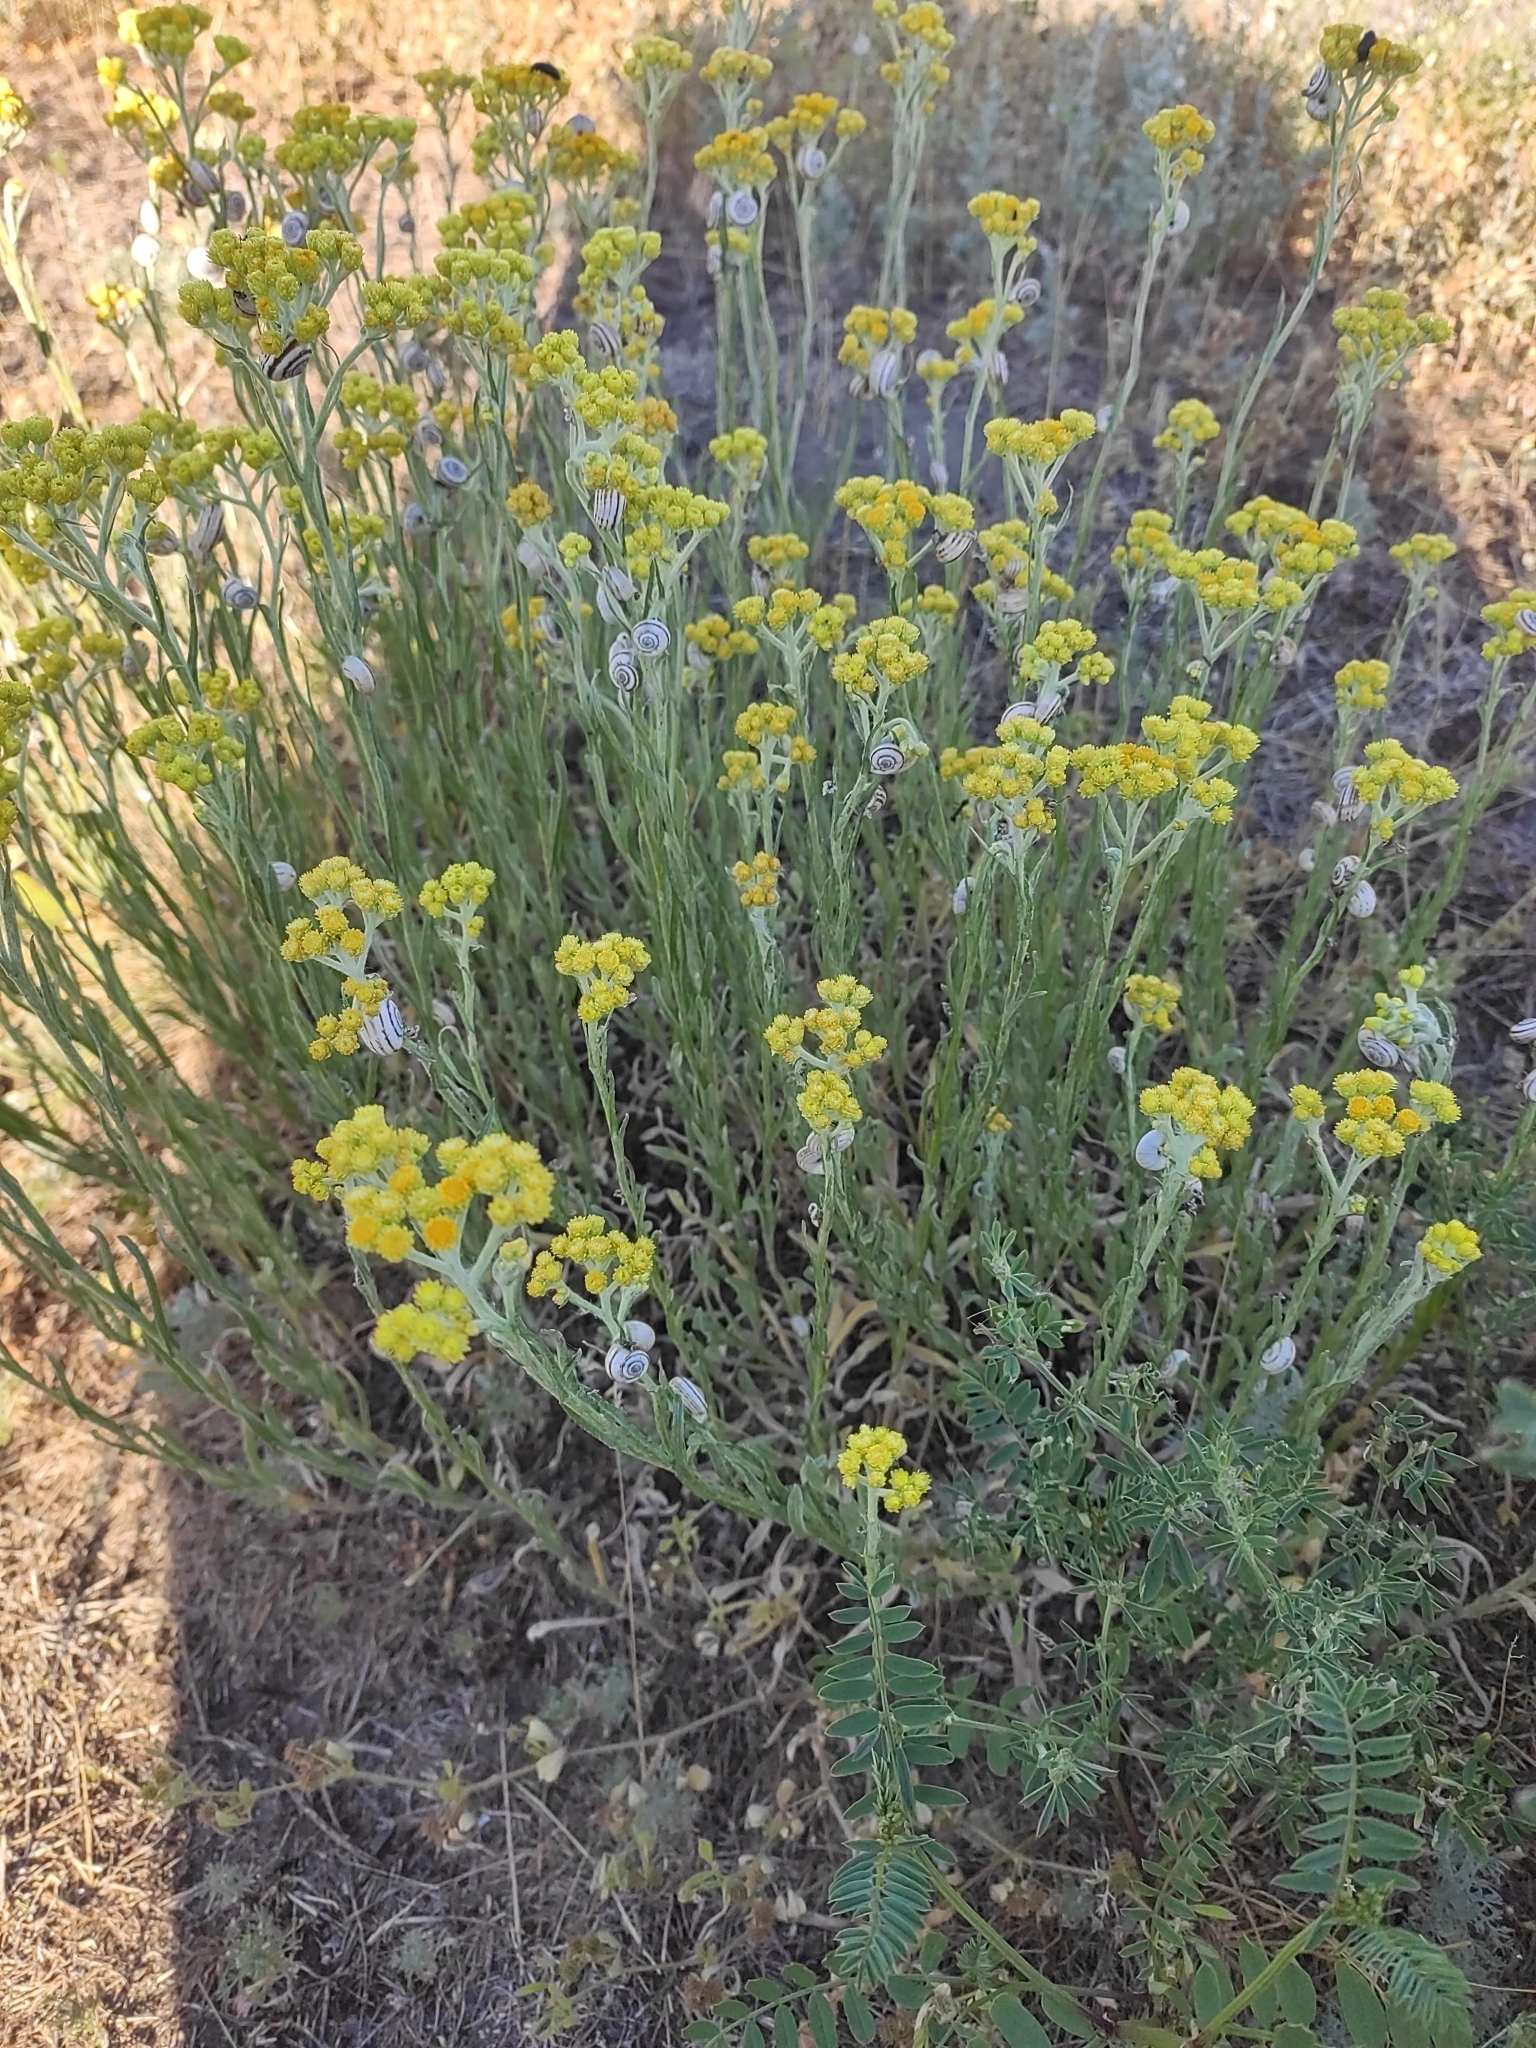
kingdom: Plantae
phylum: Tracheophyta
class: Magnoliopsida
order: Asterales
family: Asteraceae
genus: Helichrysum
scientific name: Helichrysum arenarium
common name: Strawflower
